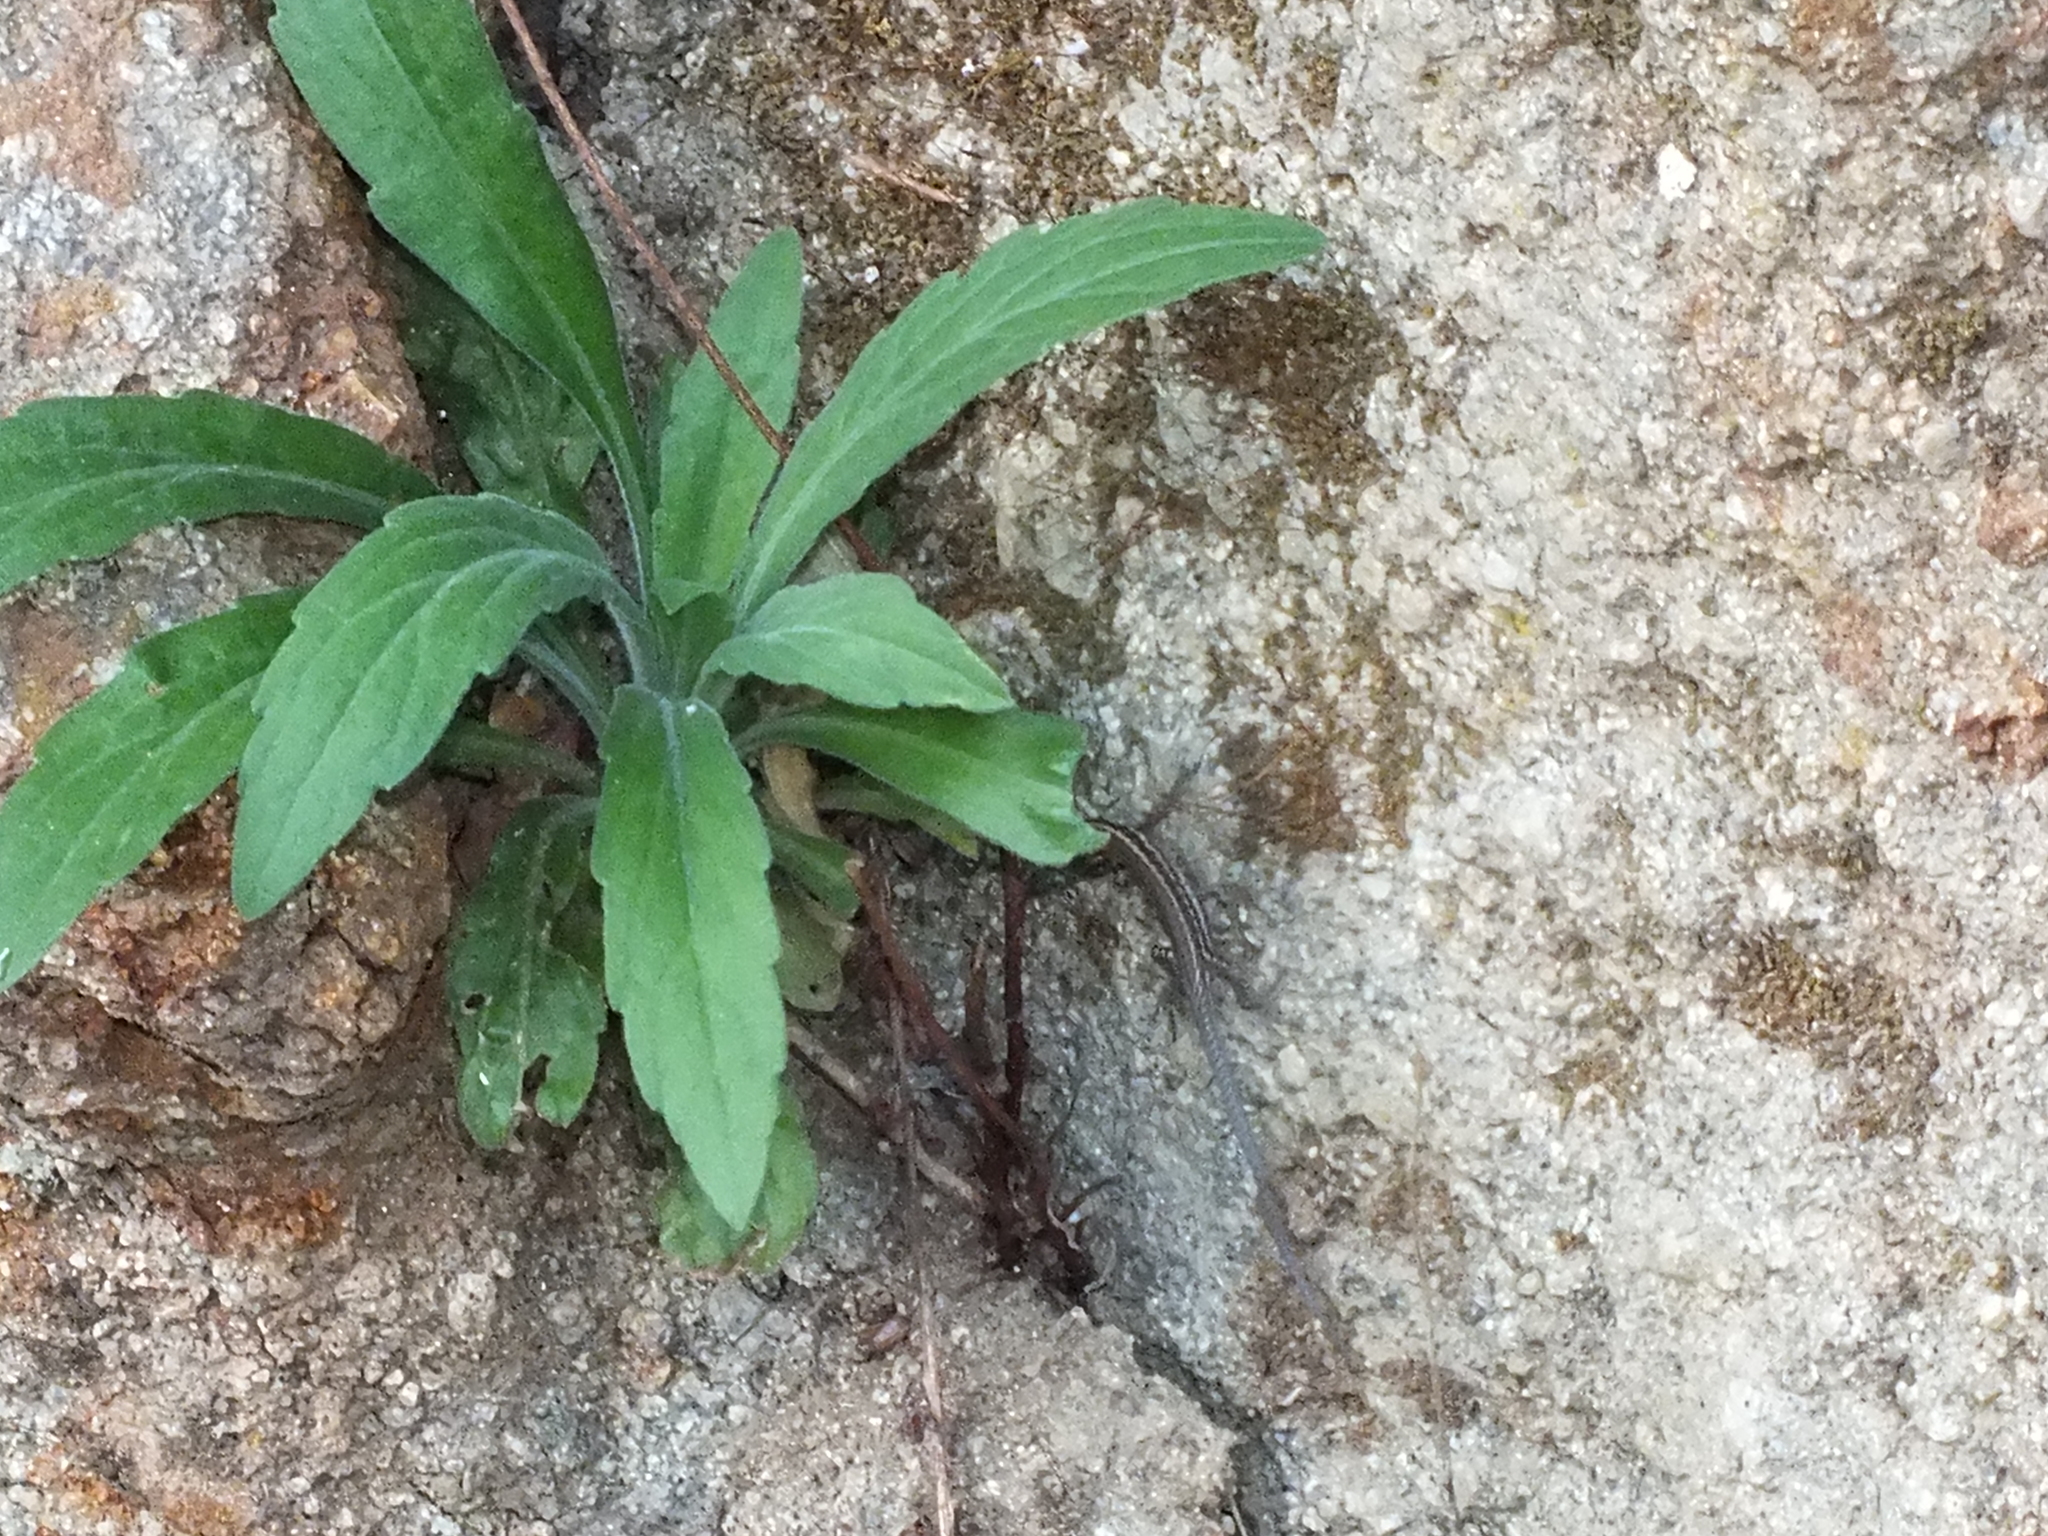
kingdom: Animalia
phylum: Chordata
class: Squamata
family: Lacertidae
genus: Podarcis
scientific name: Podarcis muralis
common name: Common wall lizard
